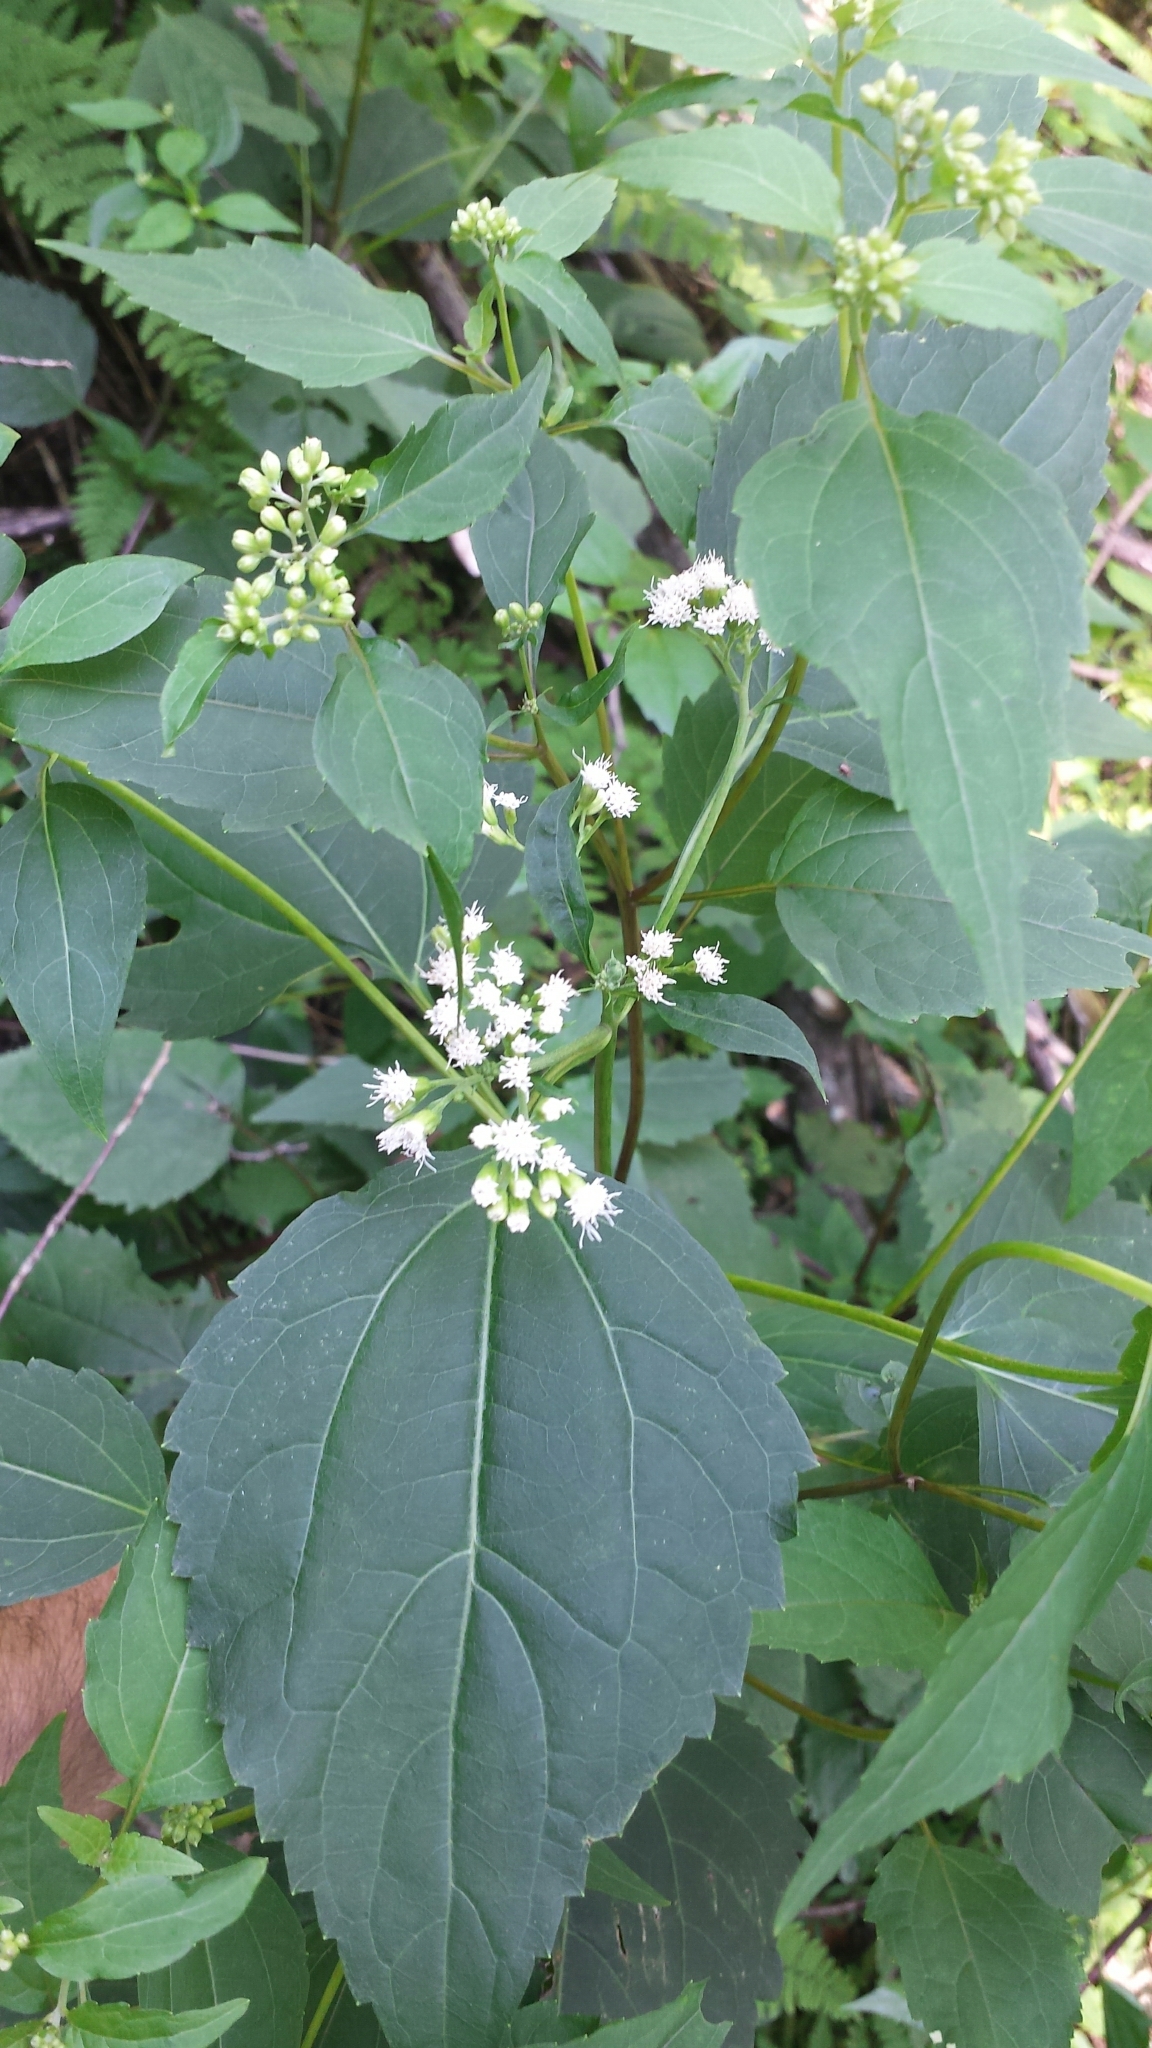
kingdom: Plantae
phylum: Tracheophyta
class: Magnoliopsida
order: Asterales
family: Asteraceae
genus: Ageratina
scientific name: Ageratina altissima
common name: White snakeroot
